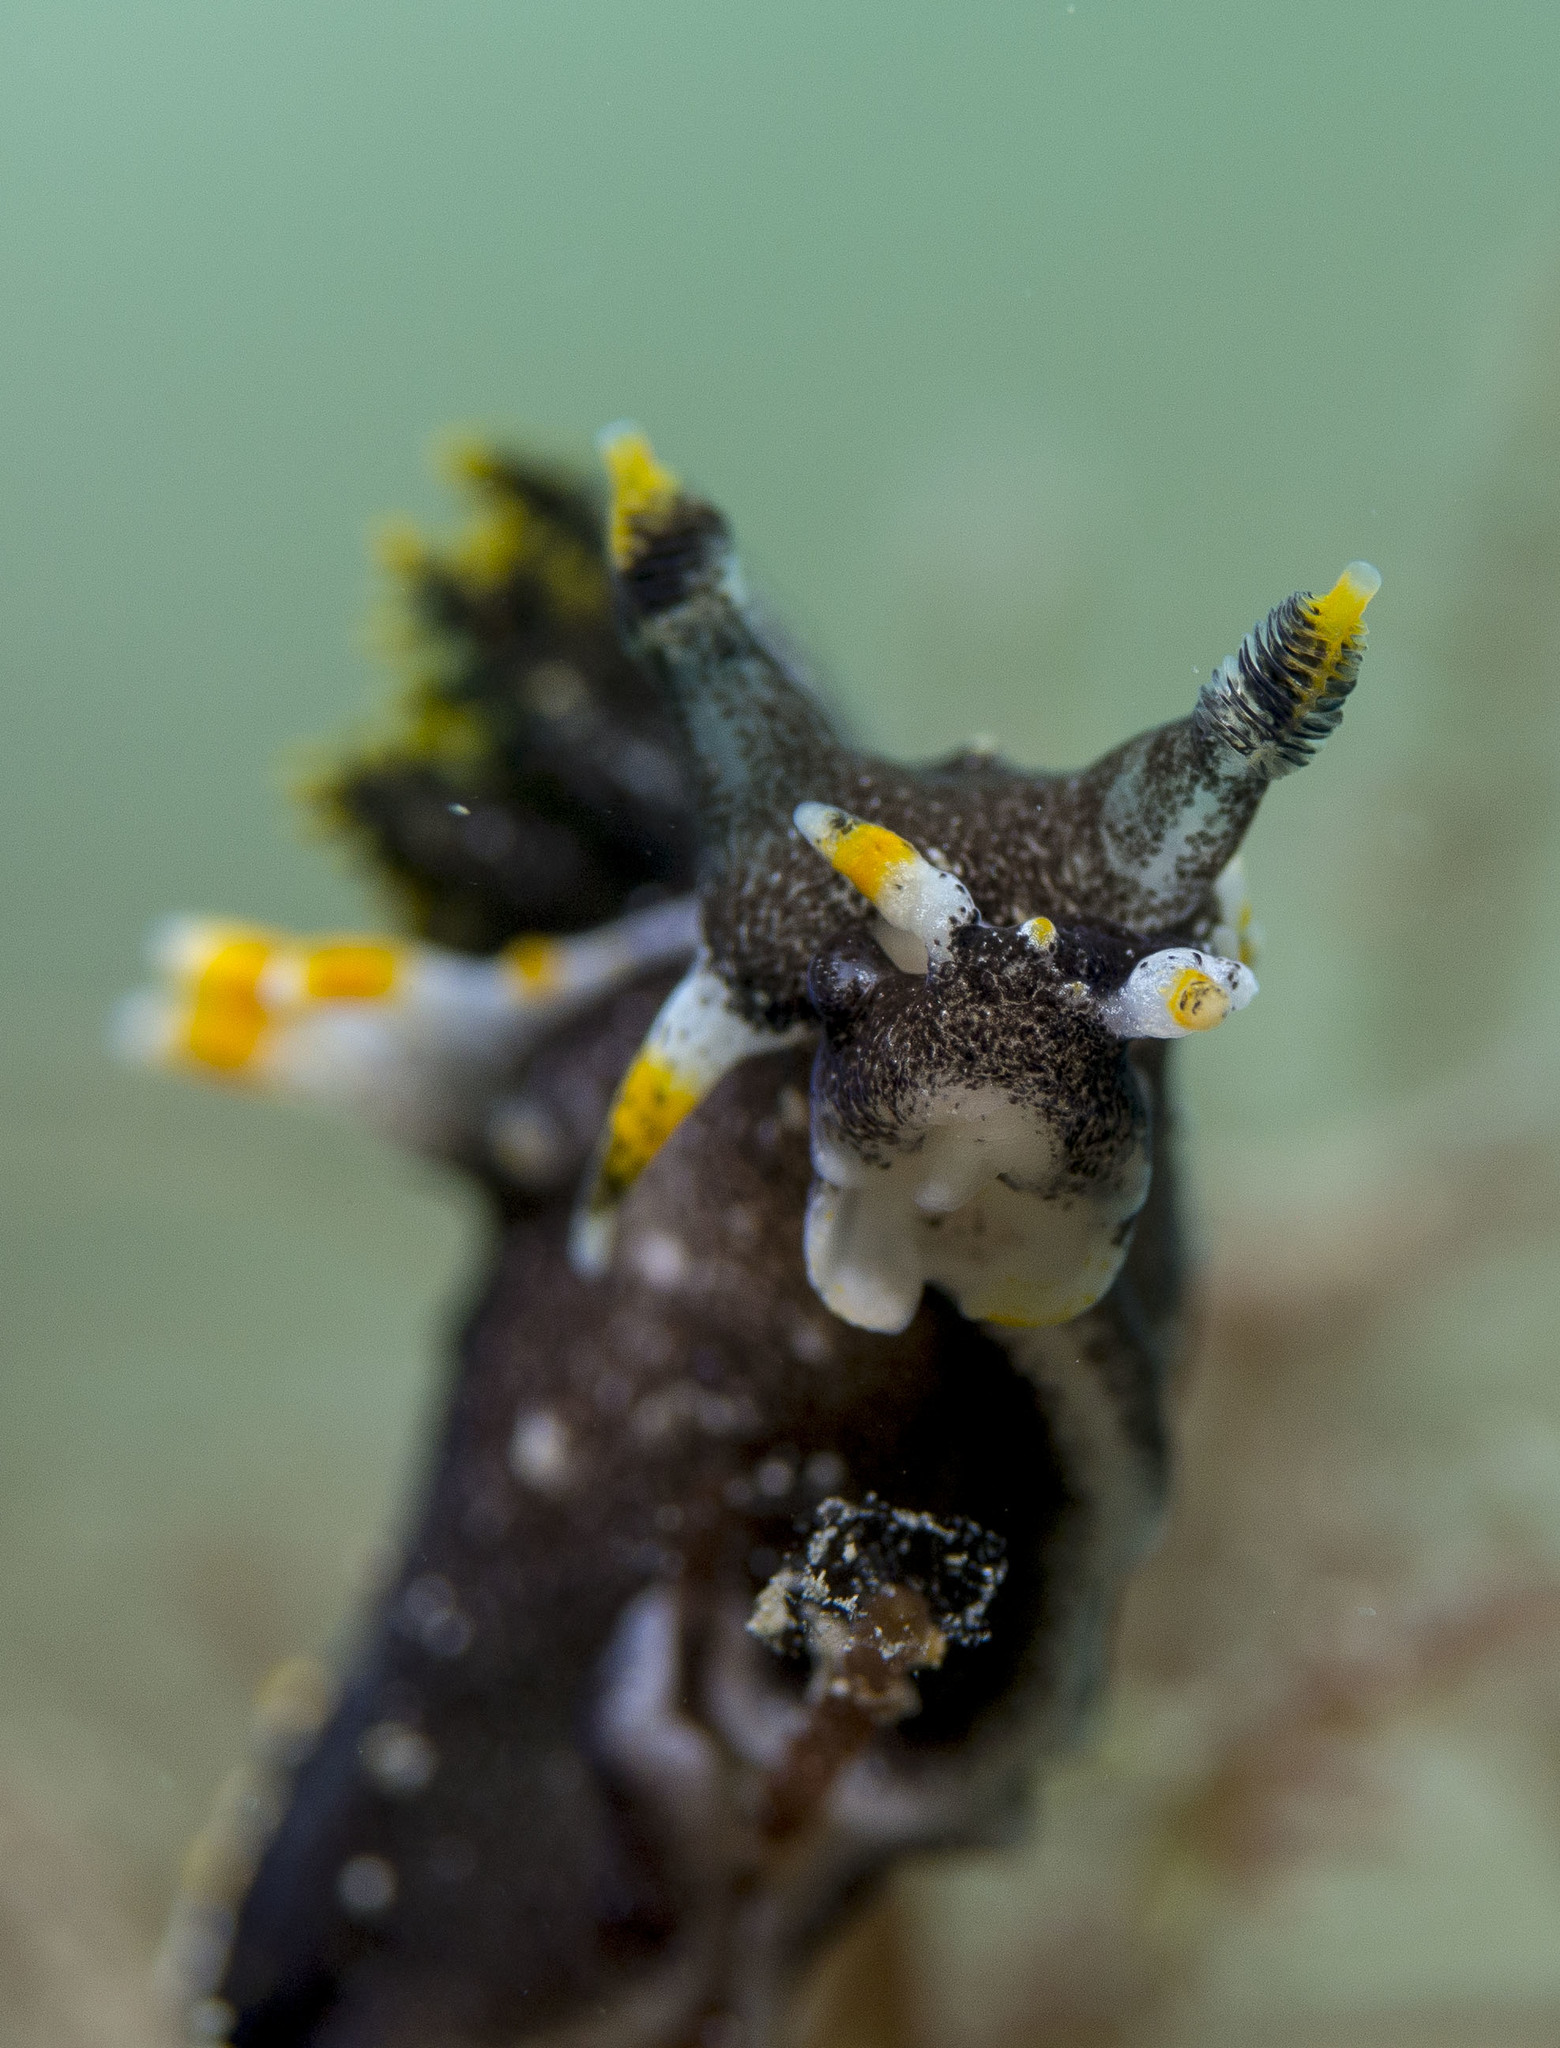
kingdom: Animalia
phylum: Mollusca
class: Gastropoda
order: Nudibranchia
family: Polyceridae
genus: Polycera
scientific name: Polycera hedgpethi
